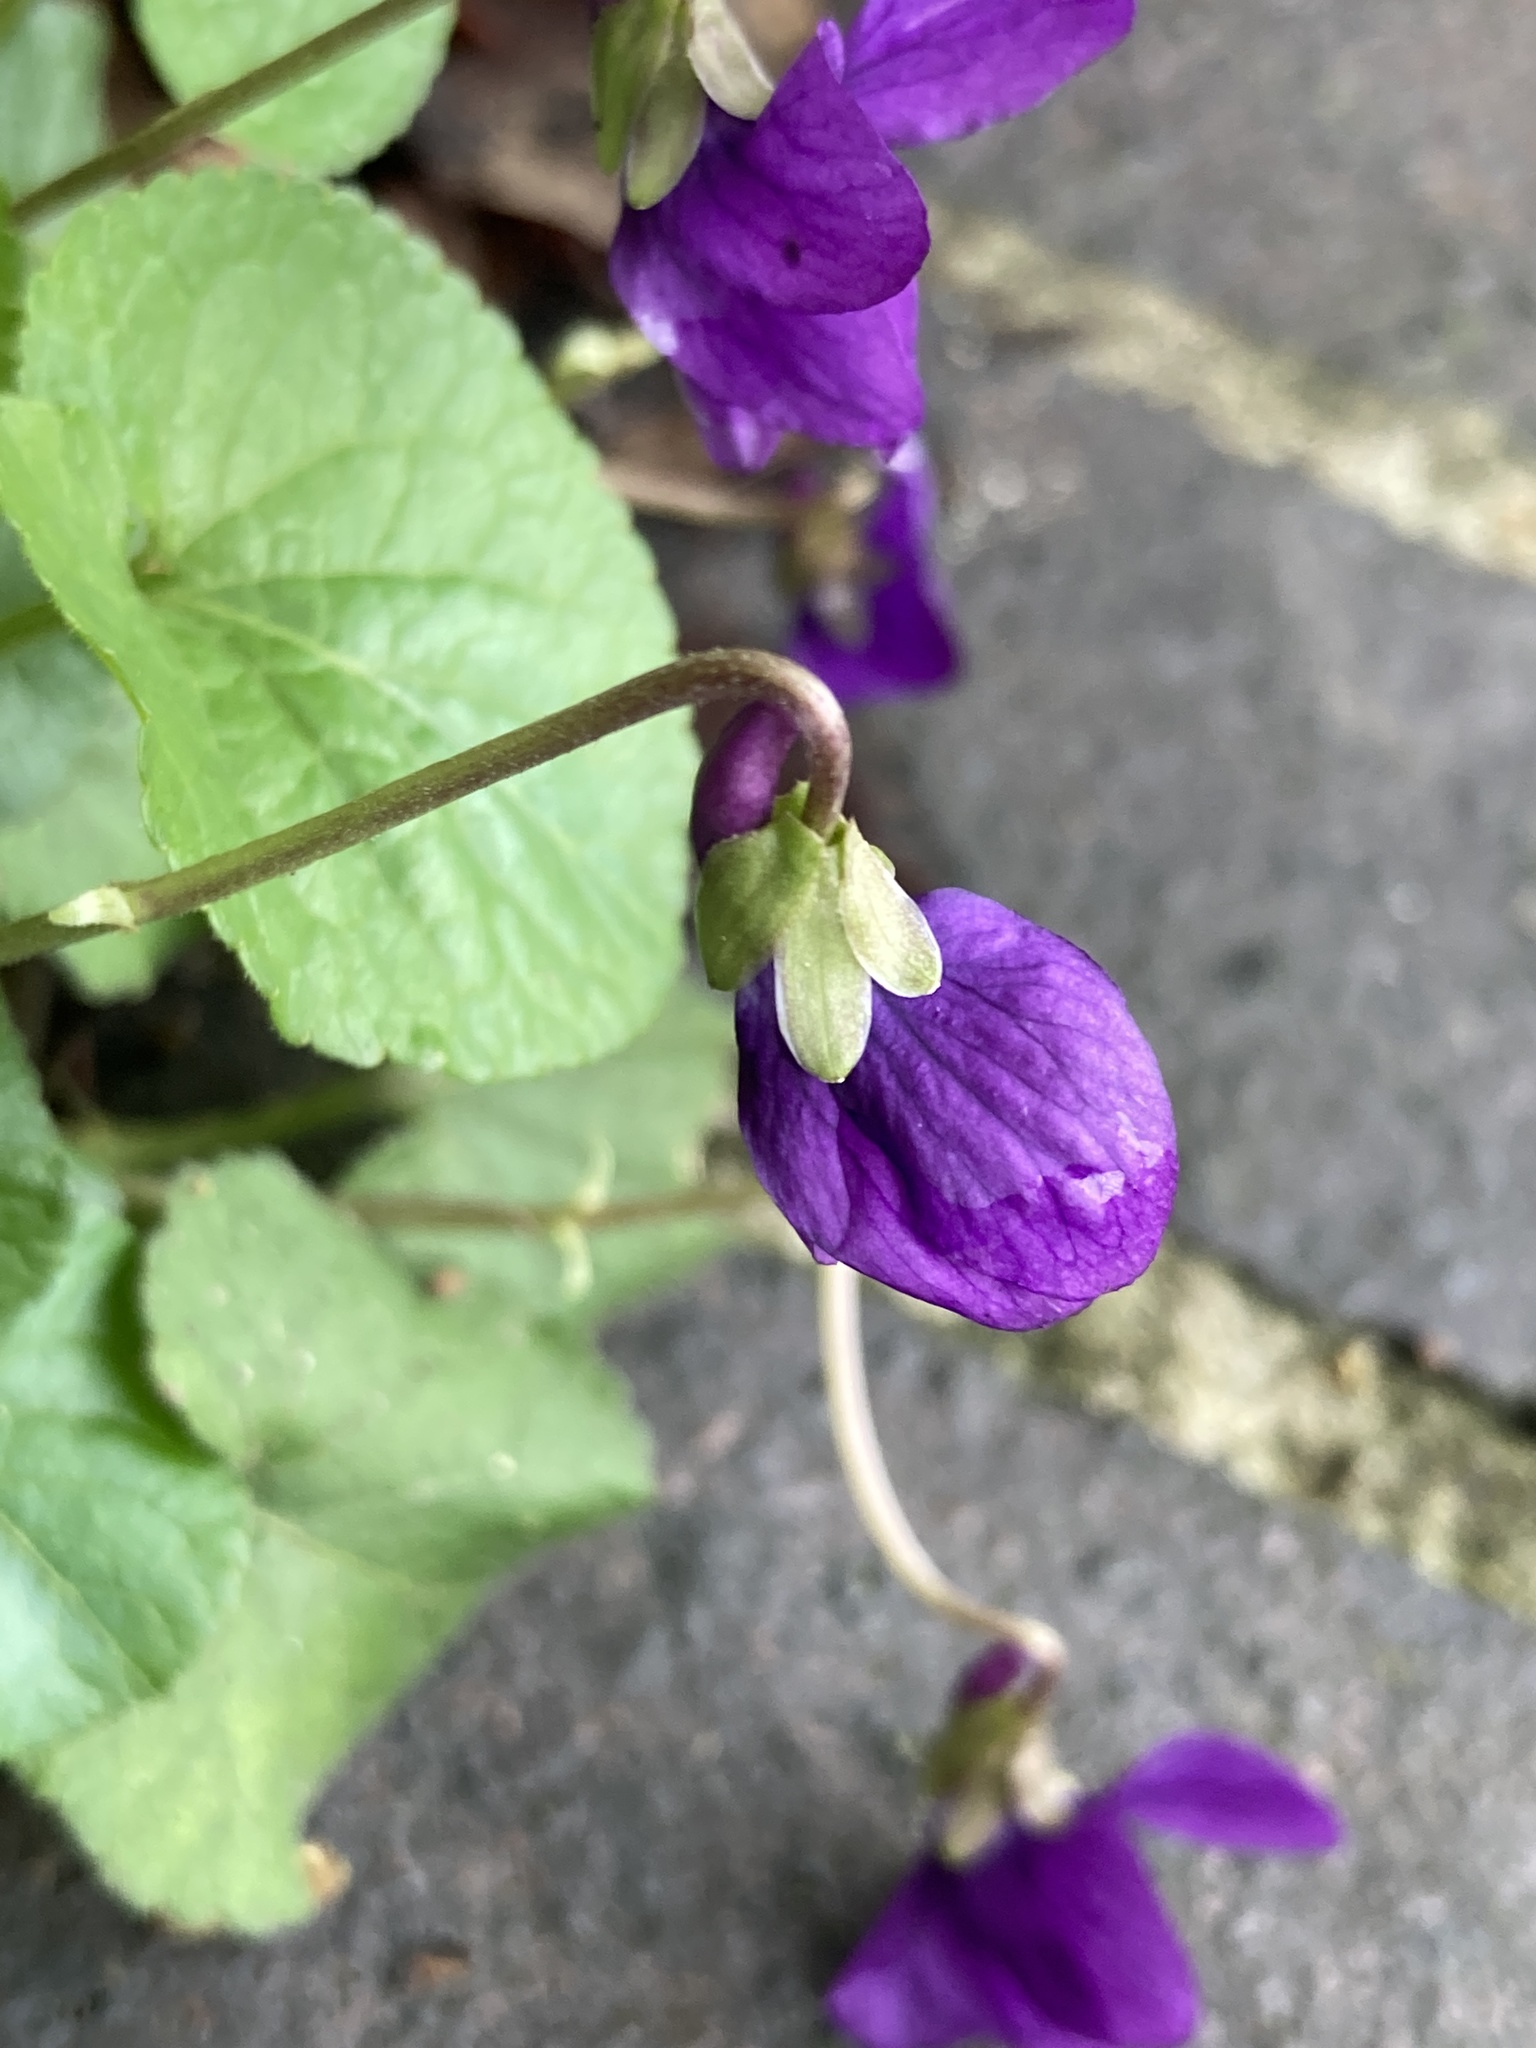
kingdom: Plantae
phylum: Tracheophyta
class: Magnoliopsida
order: Malpighiales
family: Violaceae
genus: Viola
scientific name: Viola odorata
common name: Sweet violet
